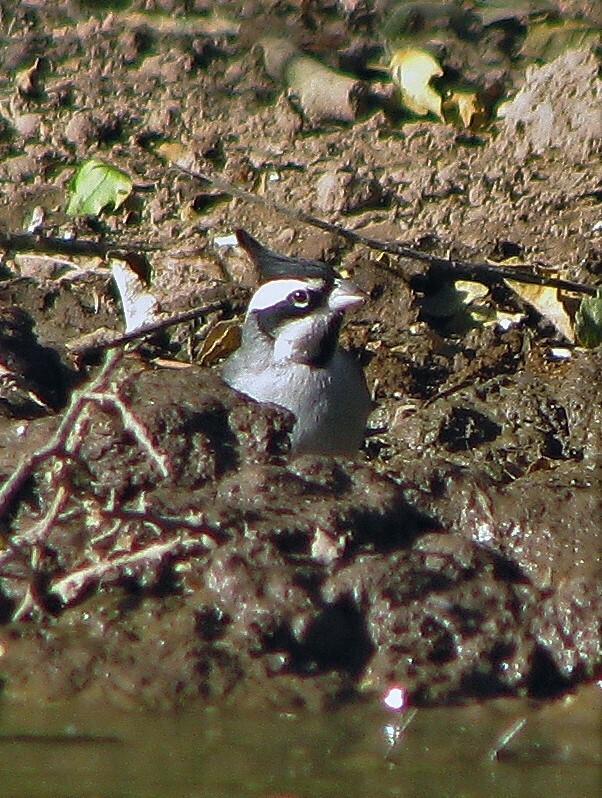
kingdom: Animalia
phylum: Chordata
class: Aves
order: Passeriformes
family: Thraupidae
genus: Lophospingus
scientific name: Lophospingus pusillus
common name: Black-crested finch
